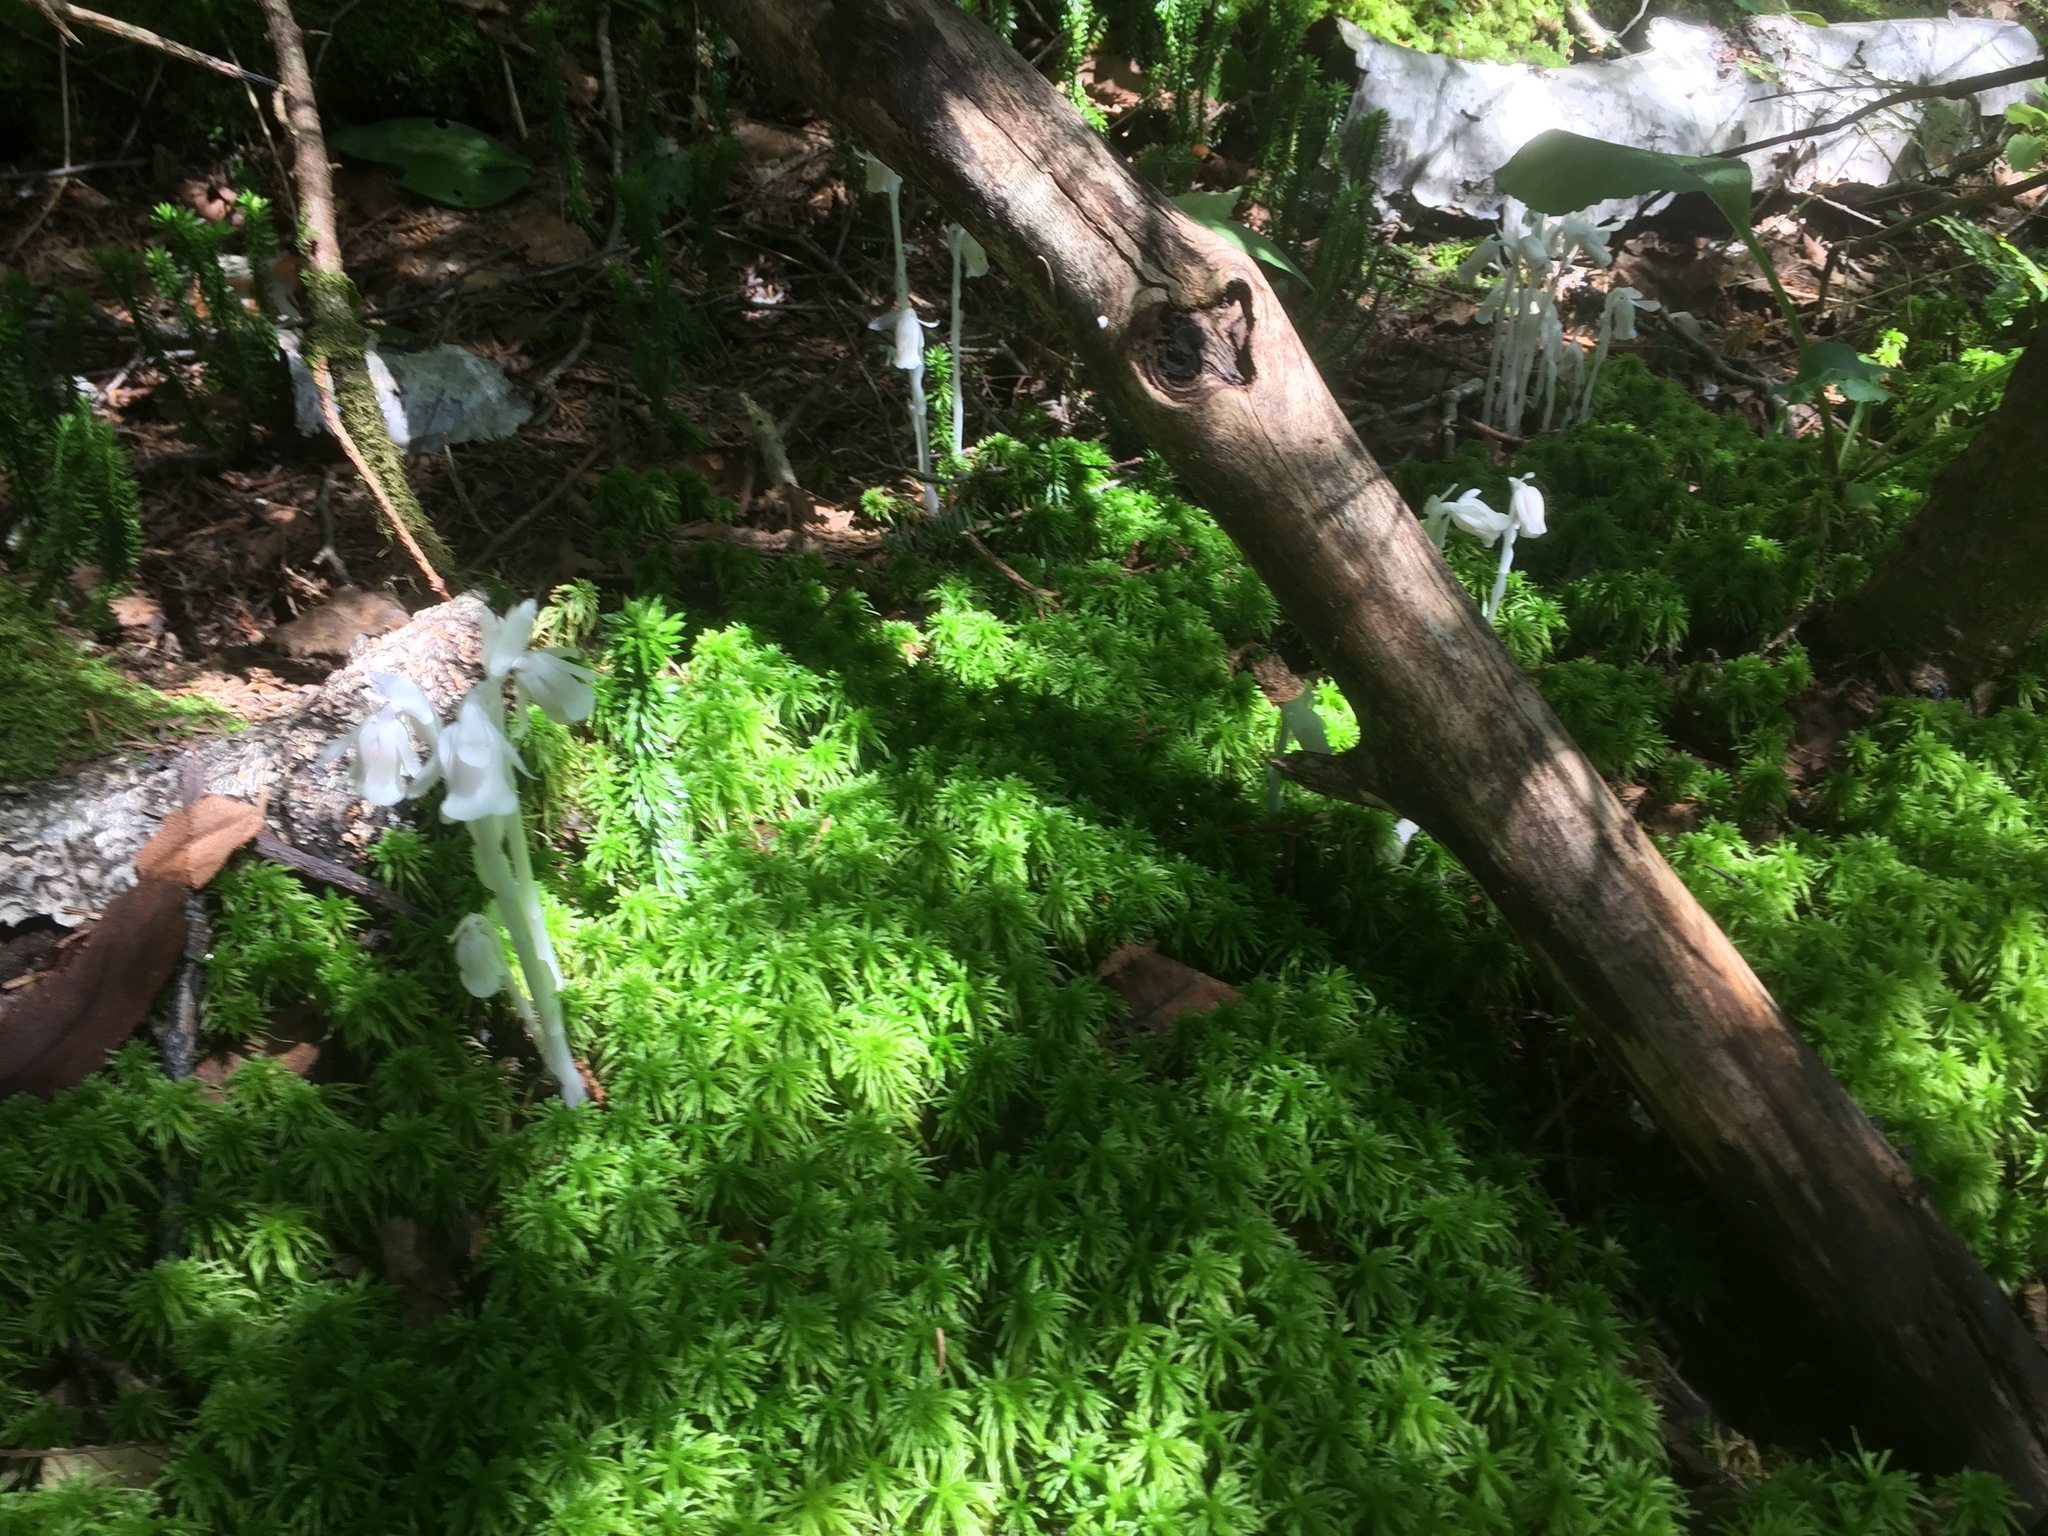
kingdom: Plantae
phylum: Tracheophyta
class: Magnoliopsida
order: Ericales
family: Ericaceae
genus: Monotropa
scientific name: Monotropa uniflora
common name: Convulsion root
